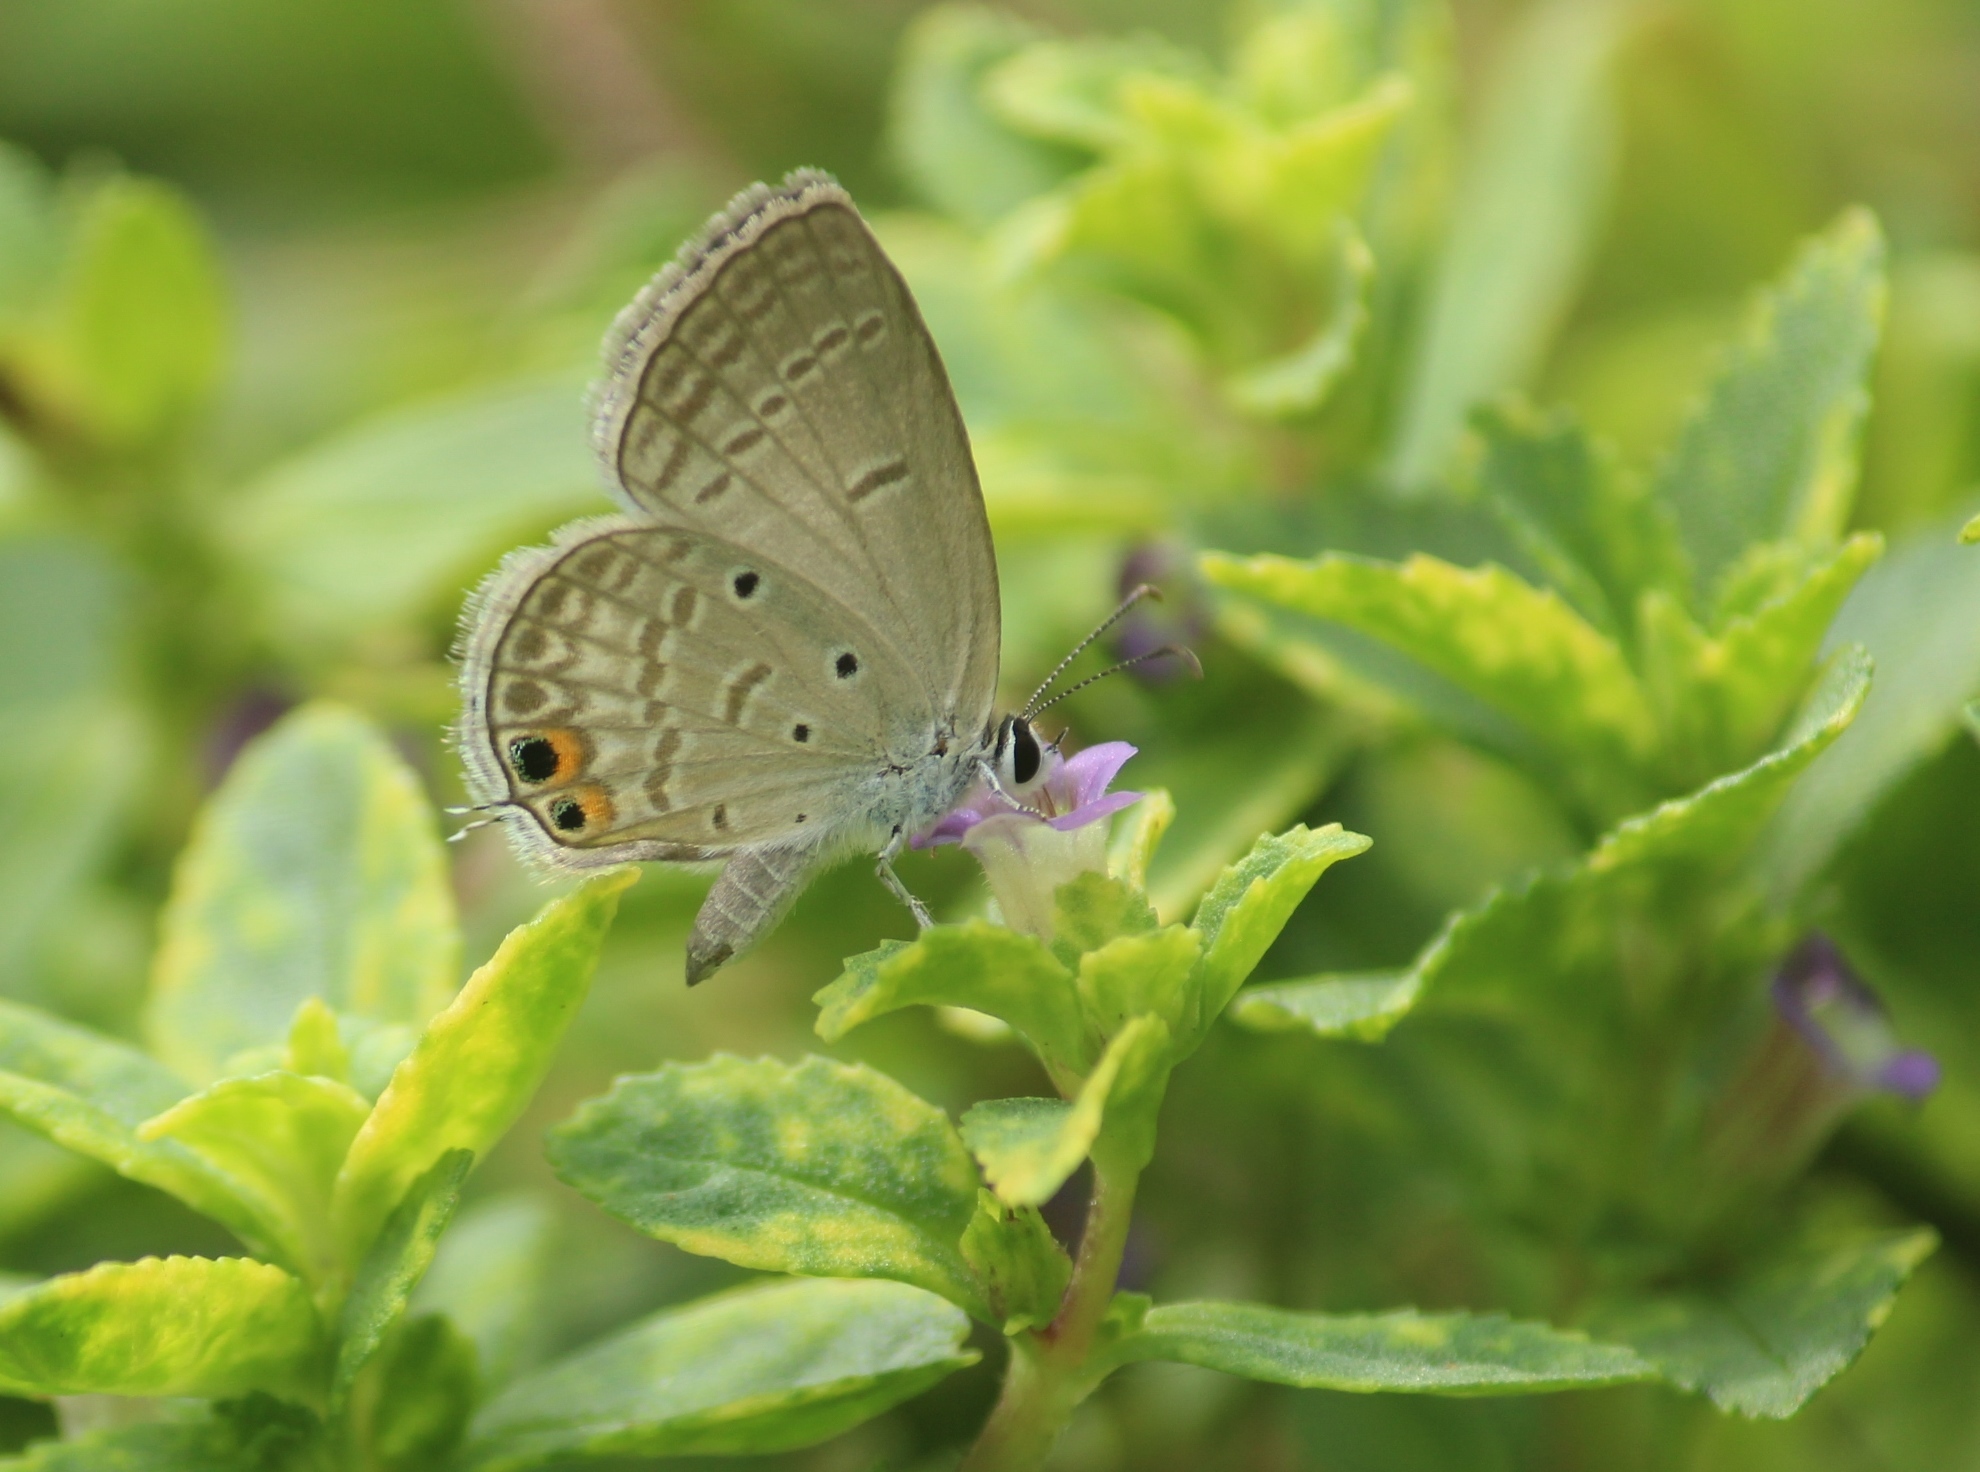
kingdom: Animalia
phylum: Arthropoda
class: Insecta
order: Lepidoptera
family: Lycaenidae
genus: Euchrysops
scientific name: Euchrysops cnejus
